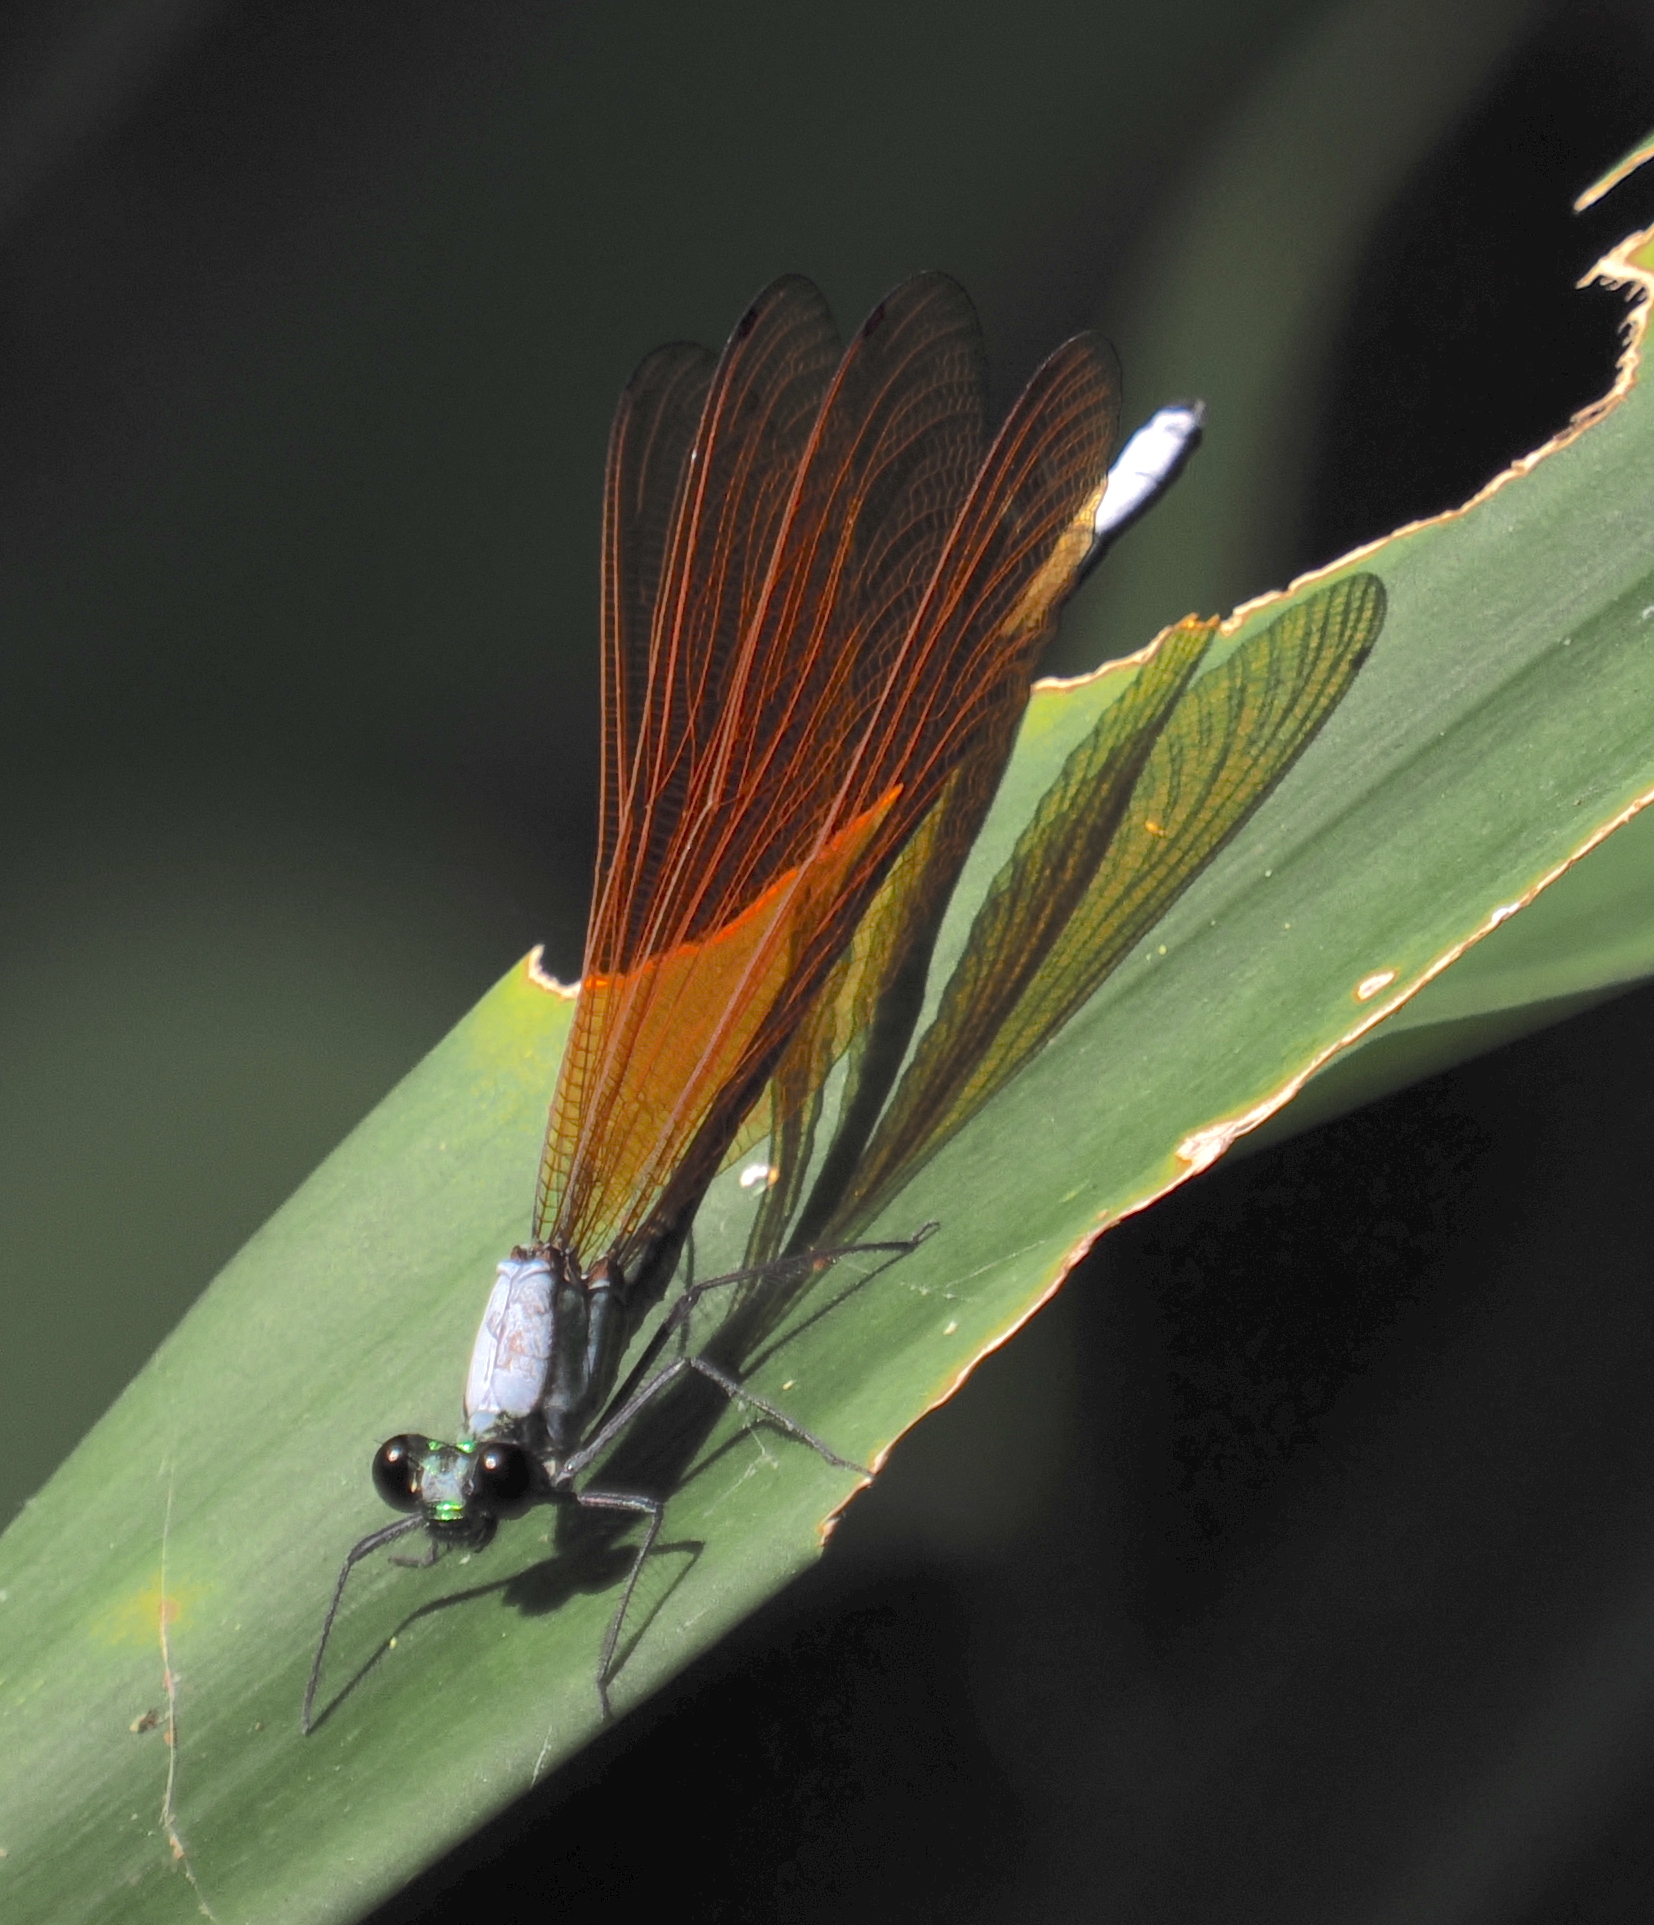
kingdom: Animalia
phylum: Arthropoda
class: Insecta
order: Odonata
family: Calopterygidae
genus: Mnais
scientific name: Mnais andersoni
